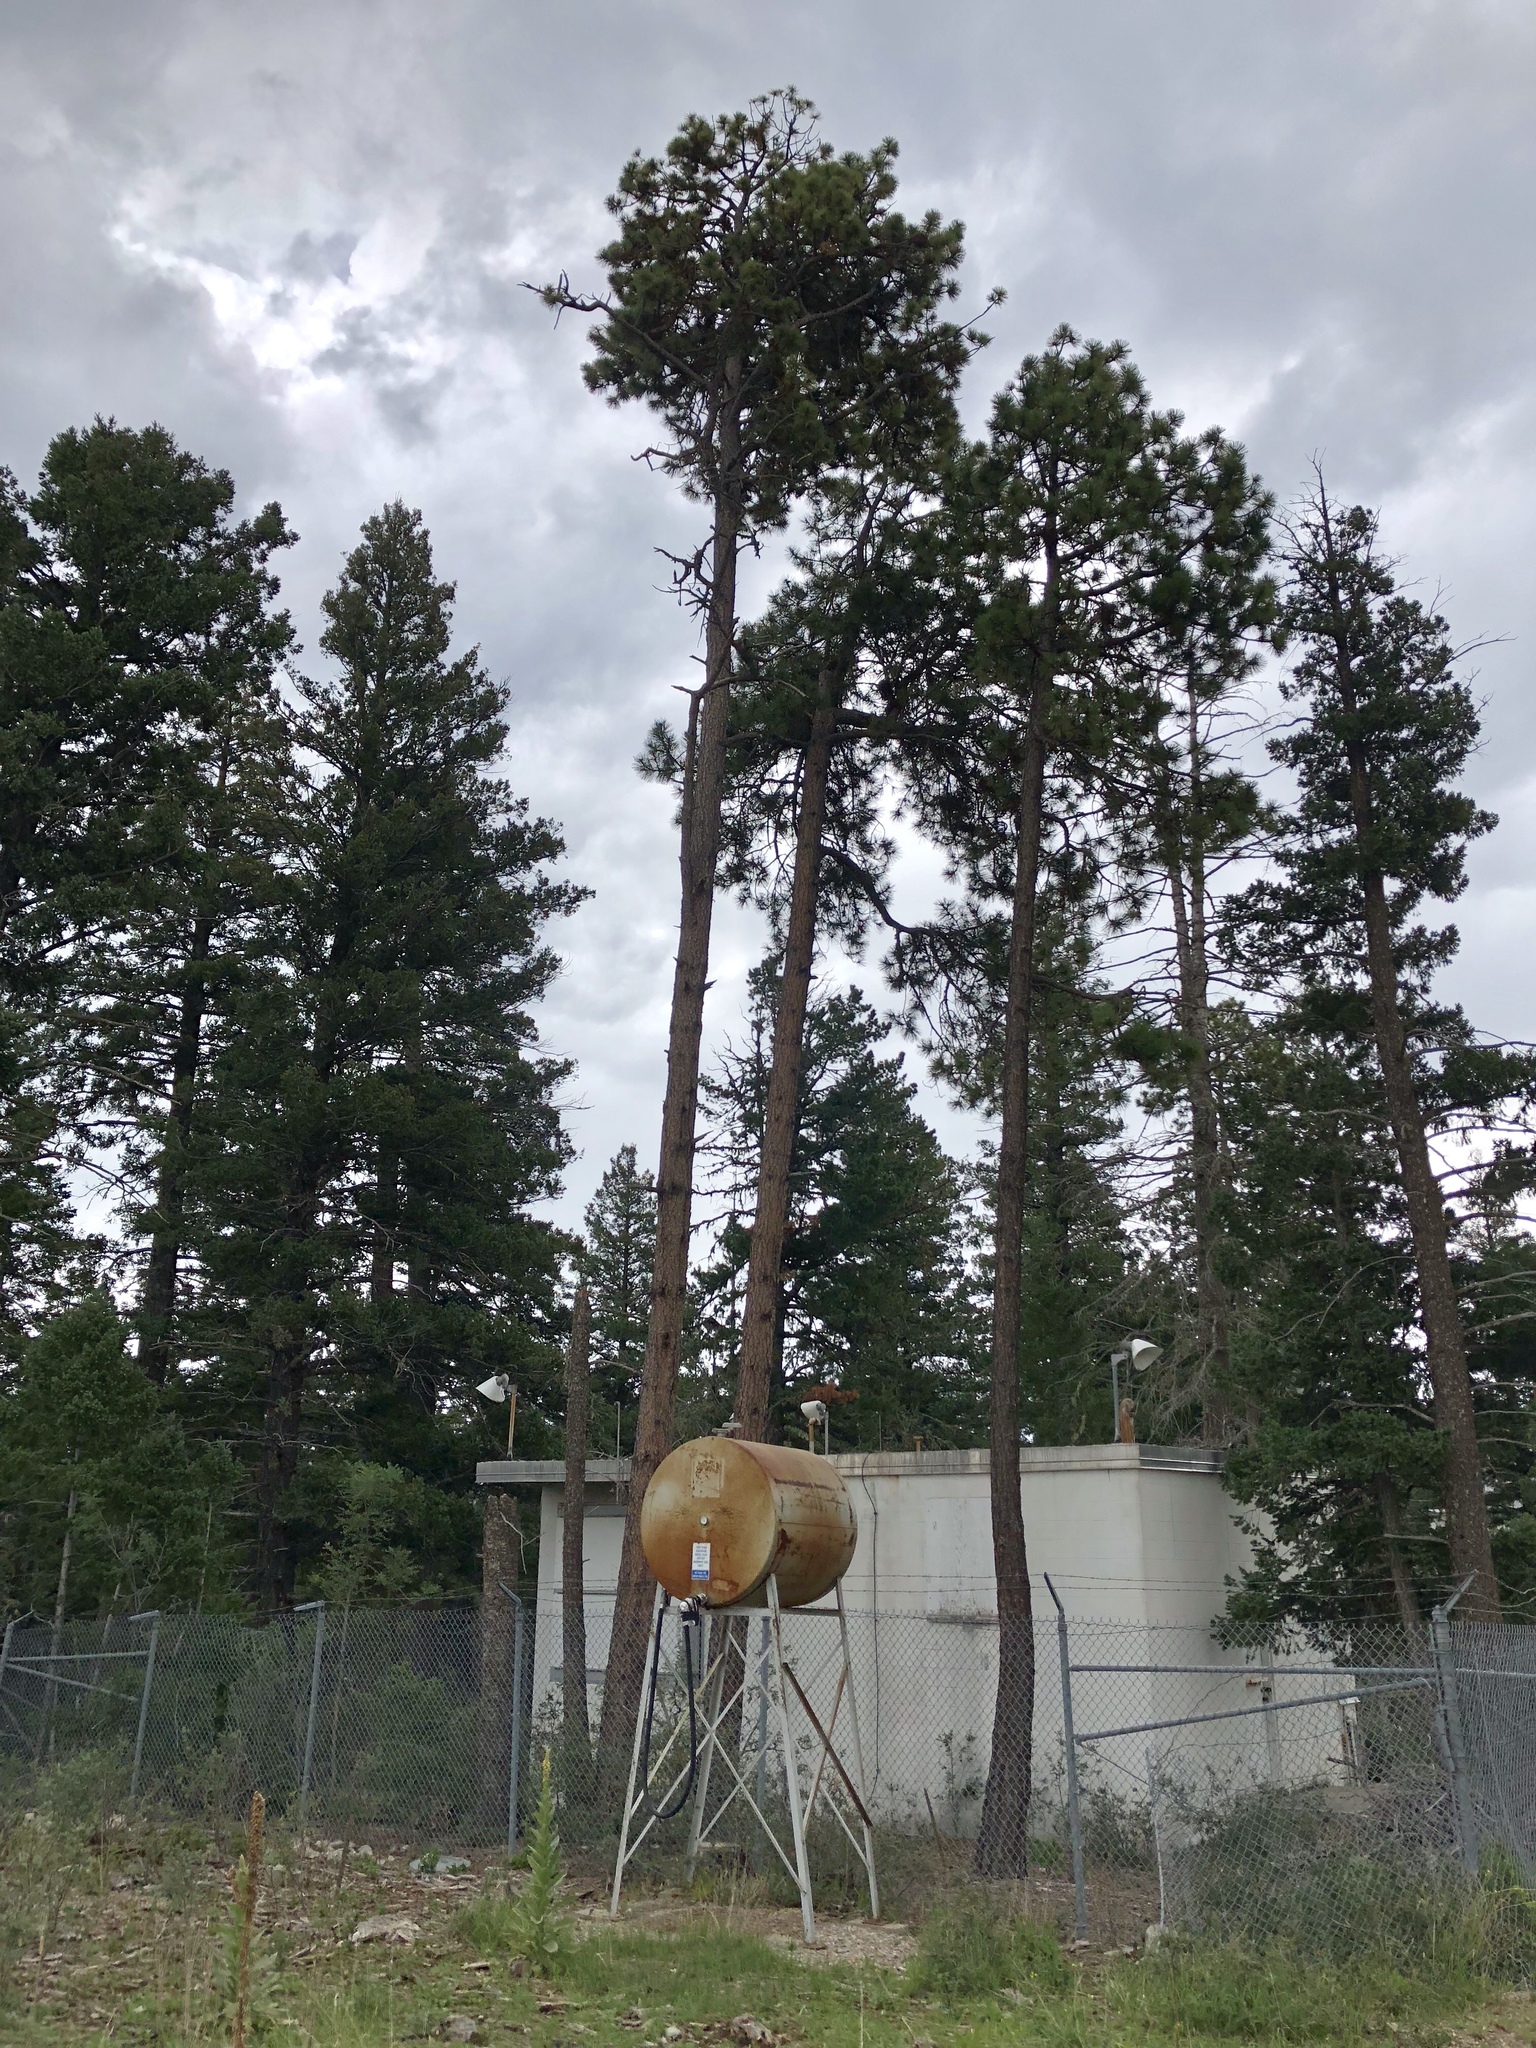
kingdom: Plantae
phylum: Tracheophyta
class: Pinopsida
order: Pinales
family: Pinaceae
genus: Pinus
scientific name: Pinus ponderosa
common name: Western yellow-pine
